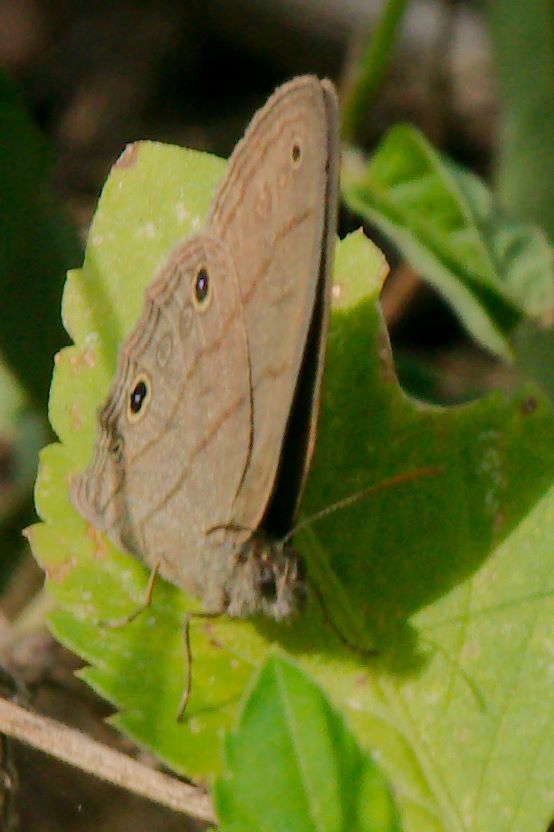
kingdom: Animalia
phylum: Arthropoda
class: Insecta
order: Lepidoptera
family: Nymphalidae
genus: Hermeuptychia
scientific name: Hermeuptychia hermes
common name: Hermes satyr
